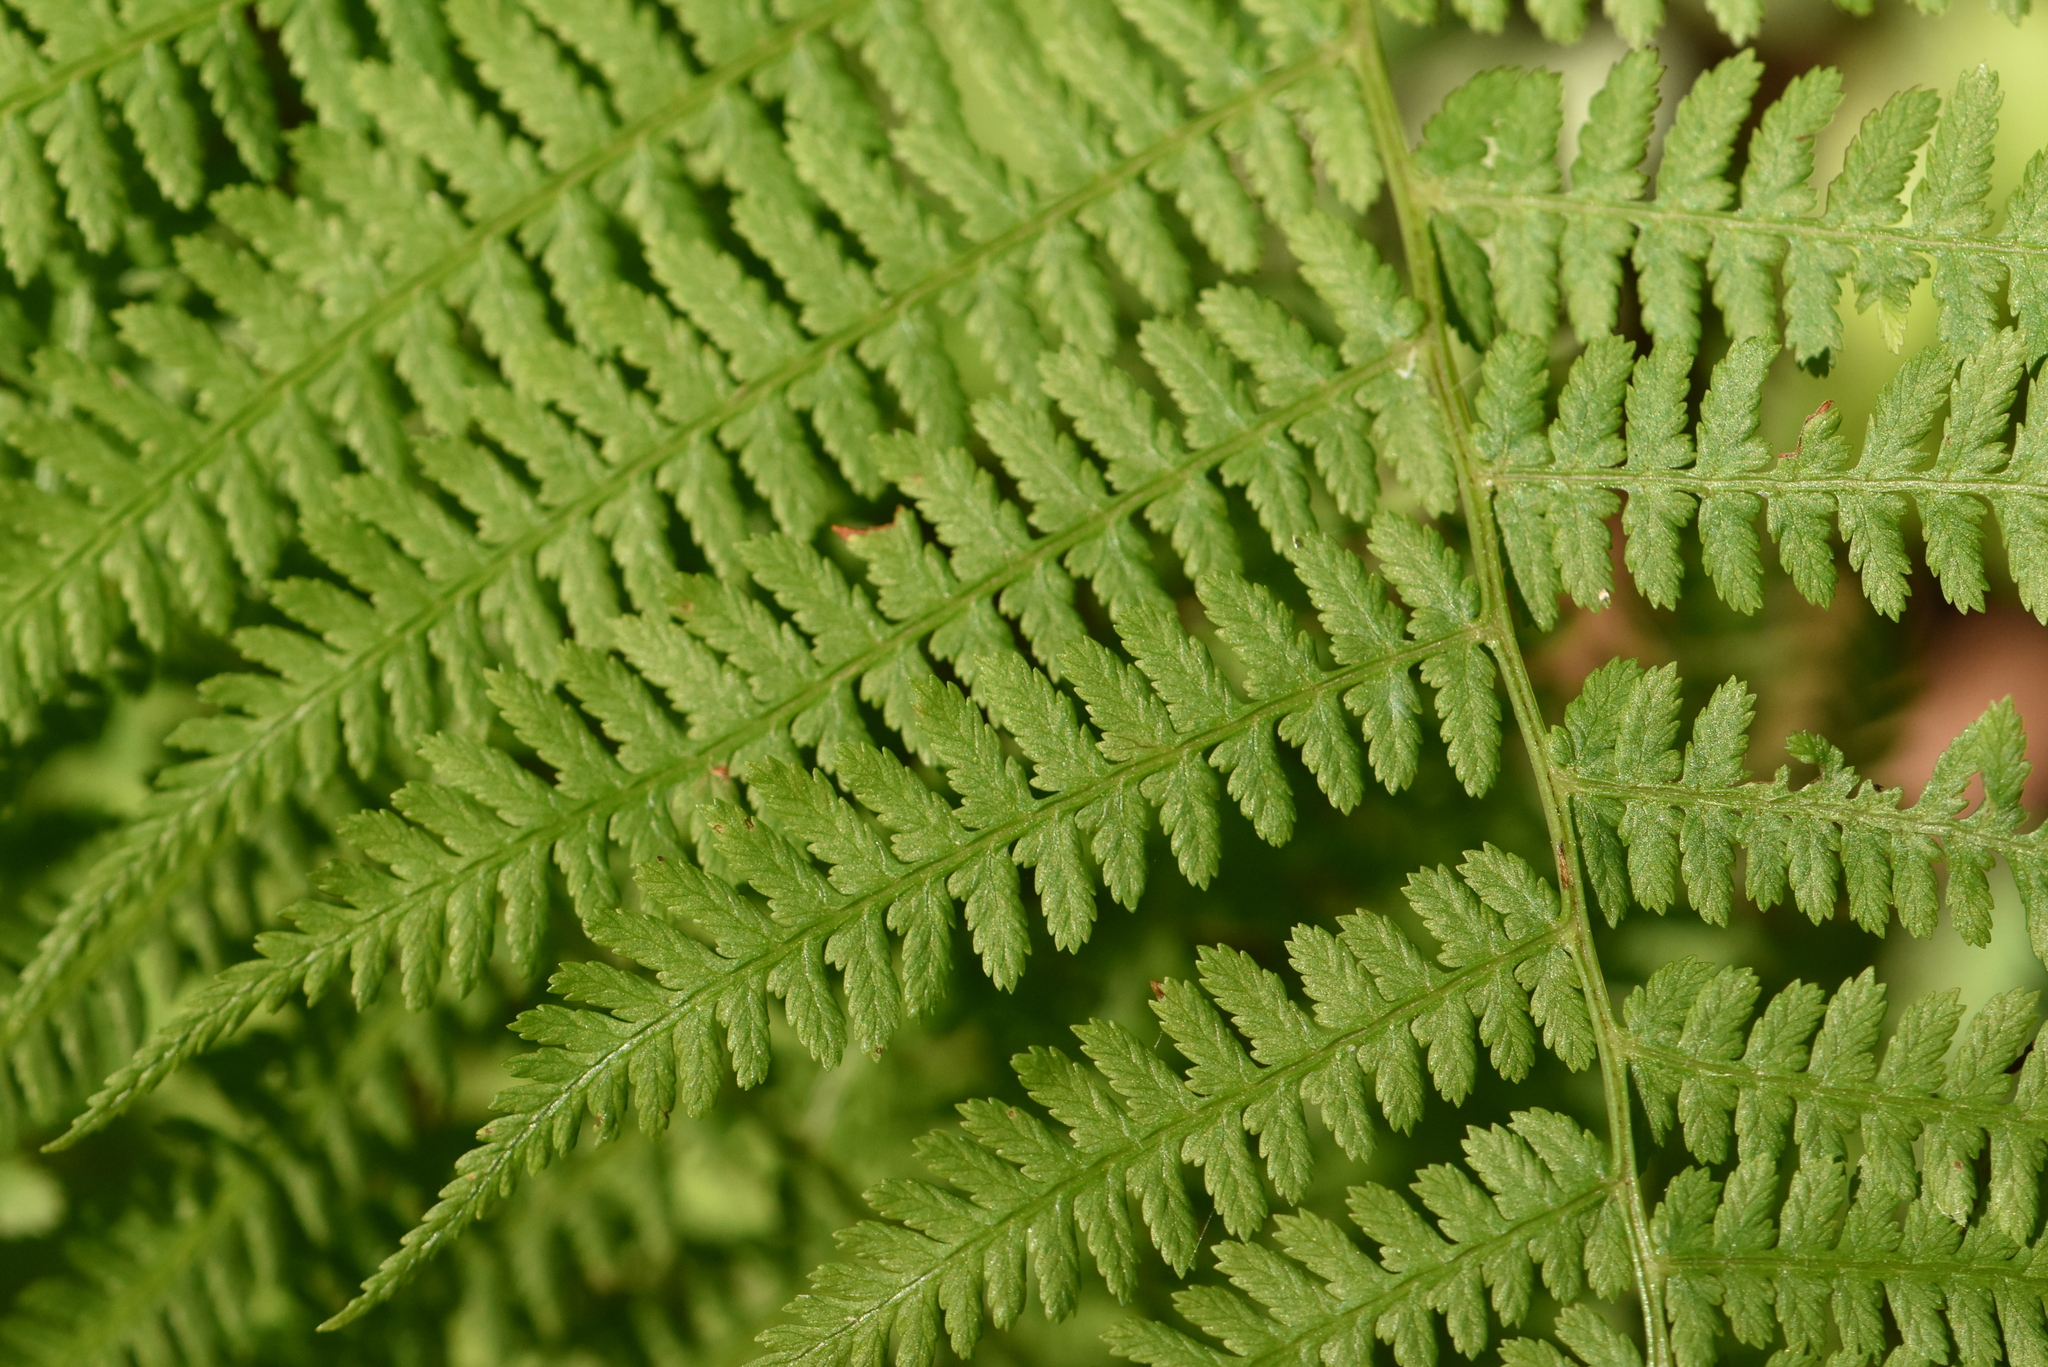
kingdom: Plantae
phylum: Tracheophyta
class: Polypodiopsida
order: Polypodiales
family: Athyriaceae
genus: Athyrium
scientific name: Athyrium filix-femina
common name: Lady fern
